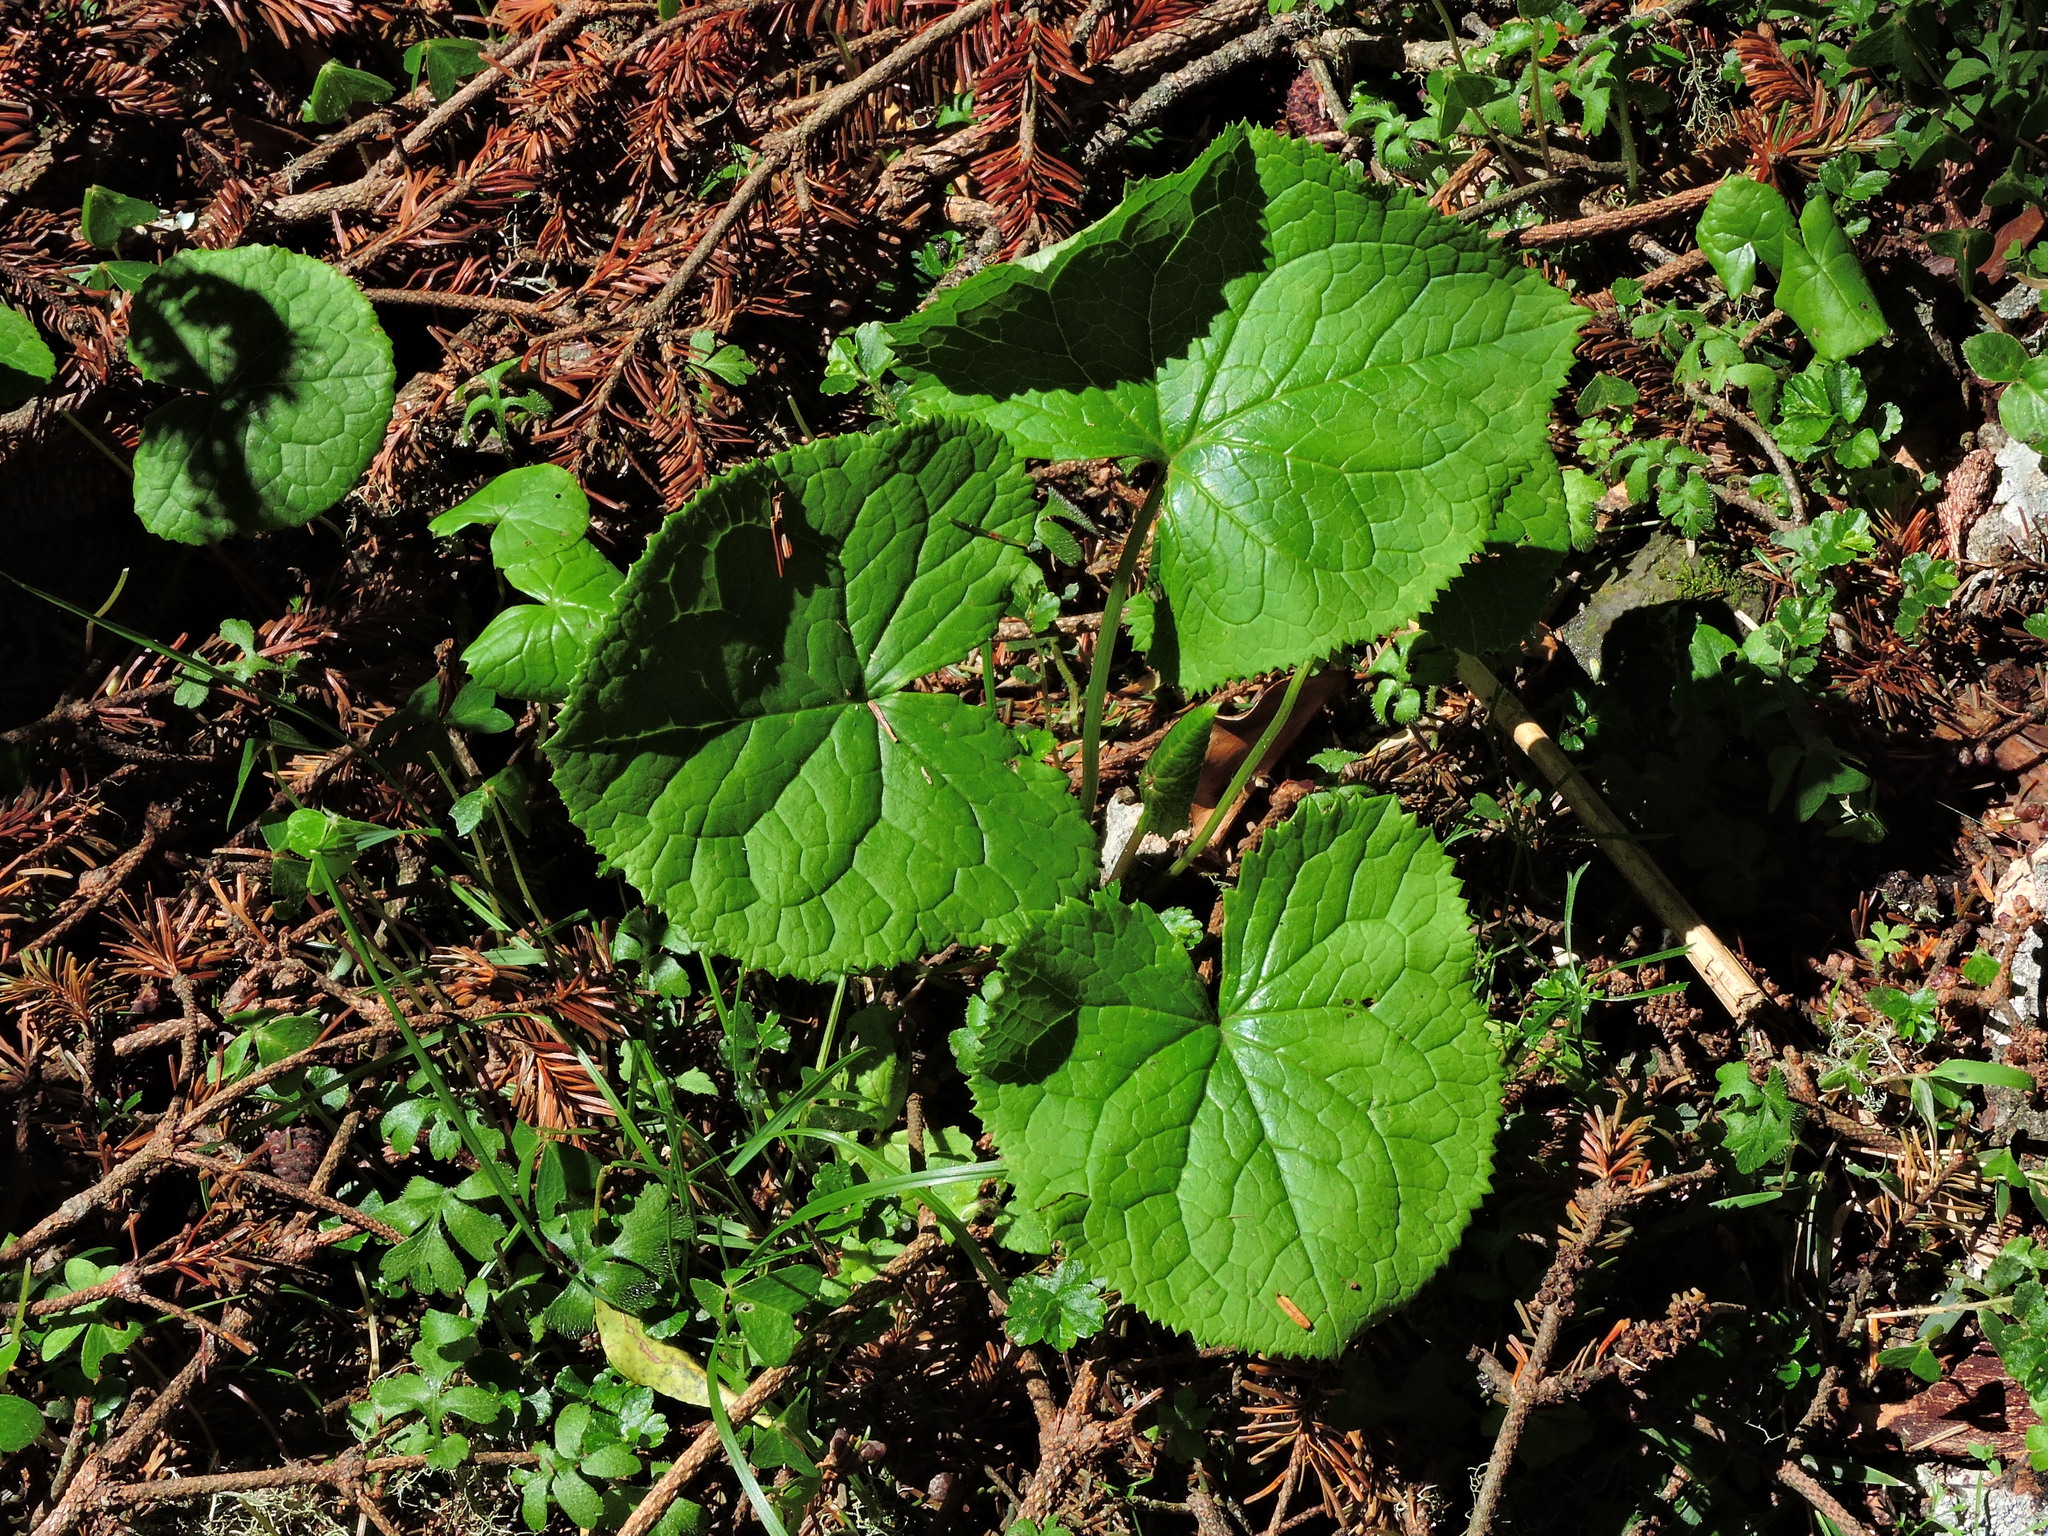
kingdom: Plantae
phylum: Tracheophyta
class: Magnoliopsida
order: Asterales
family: Asteraceae
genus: Ligularia
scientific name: Ligularia kojimae
